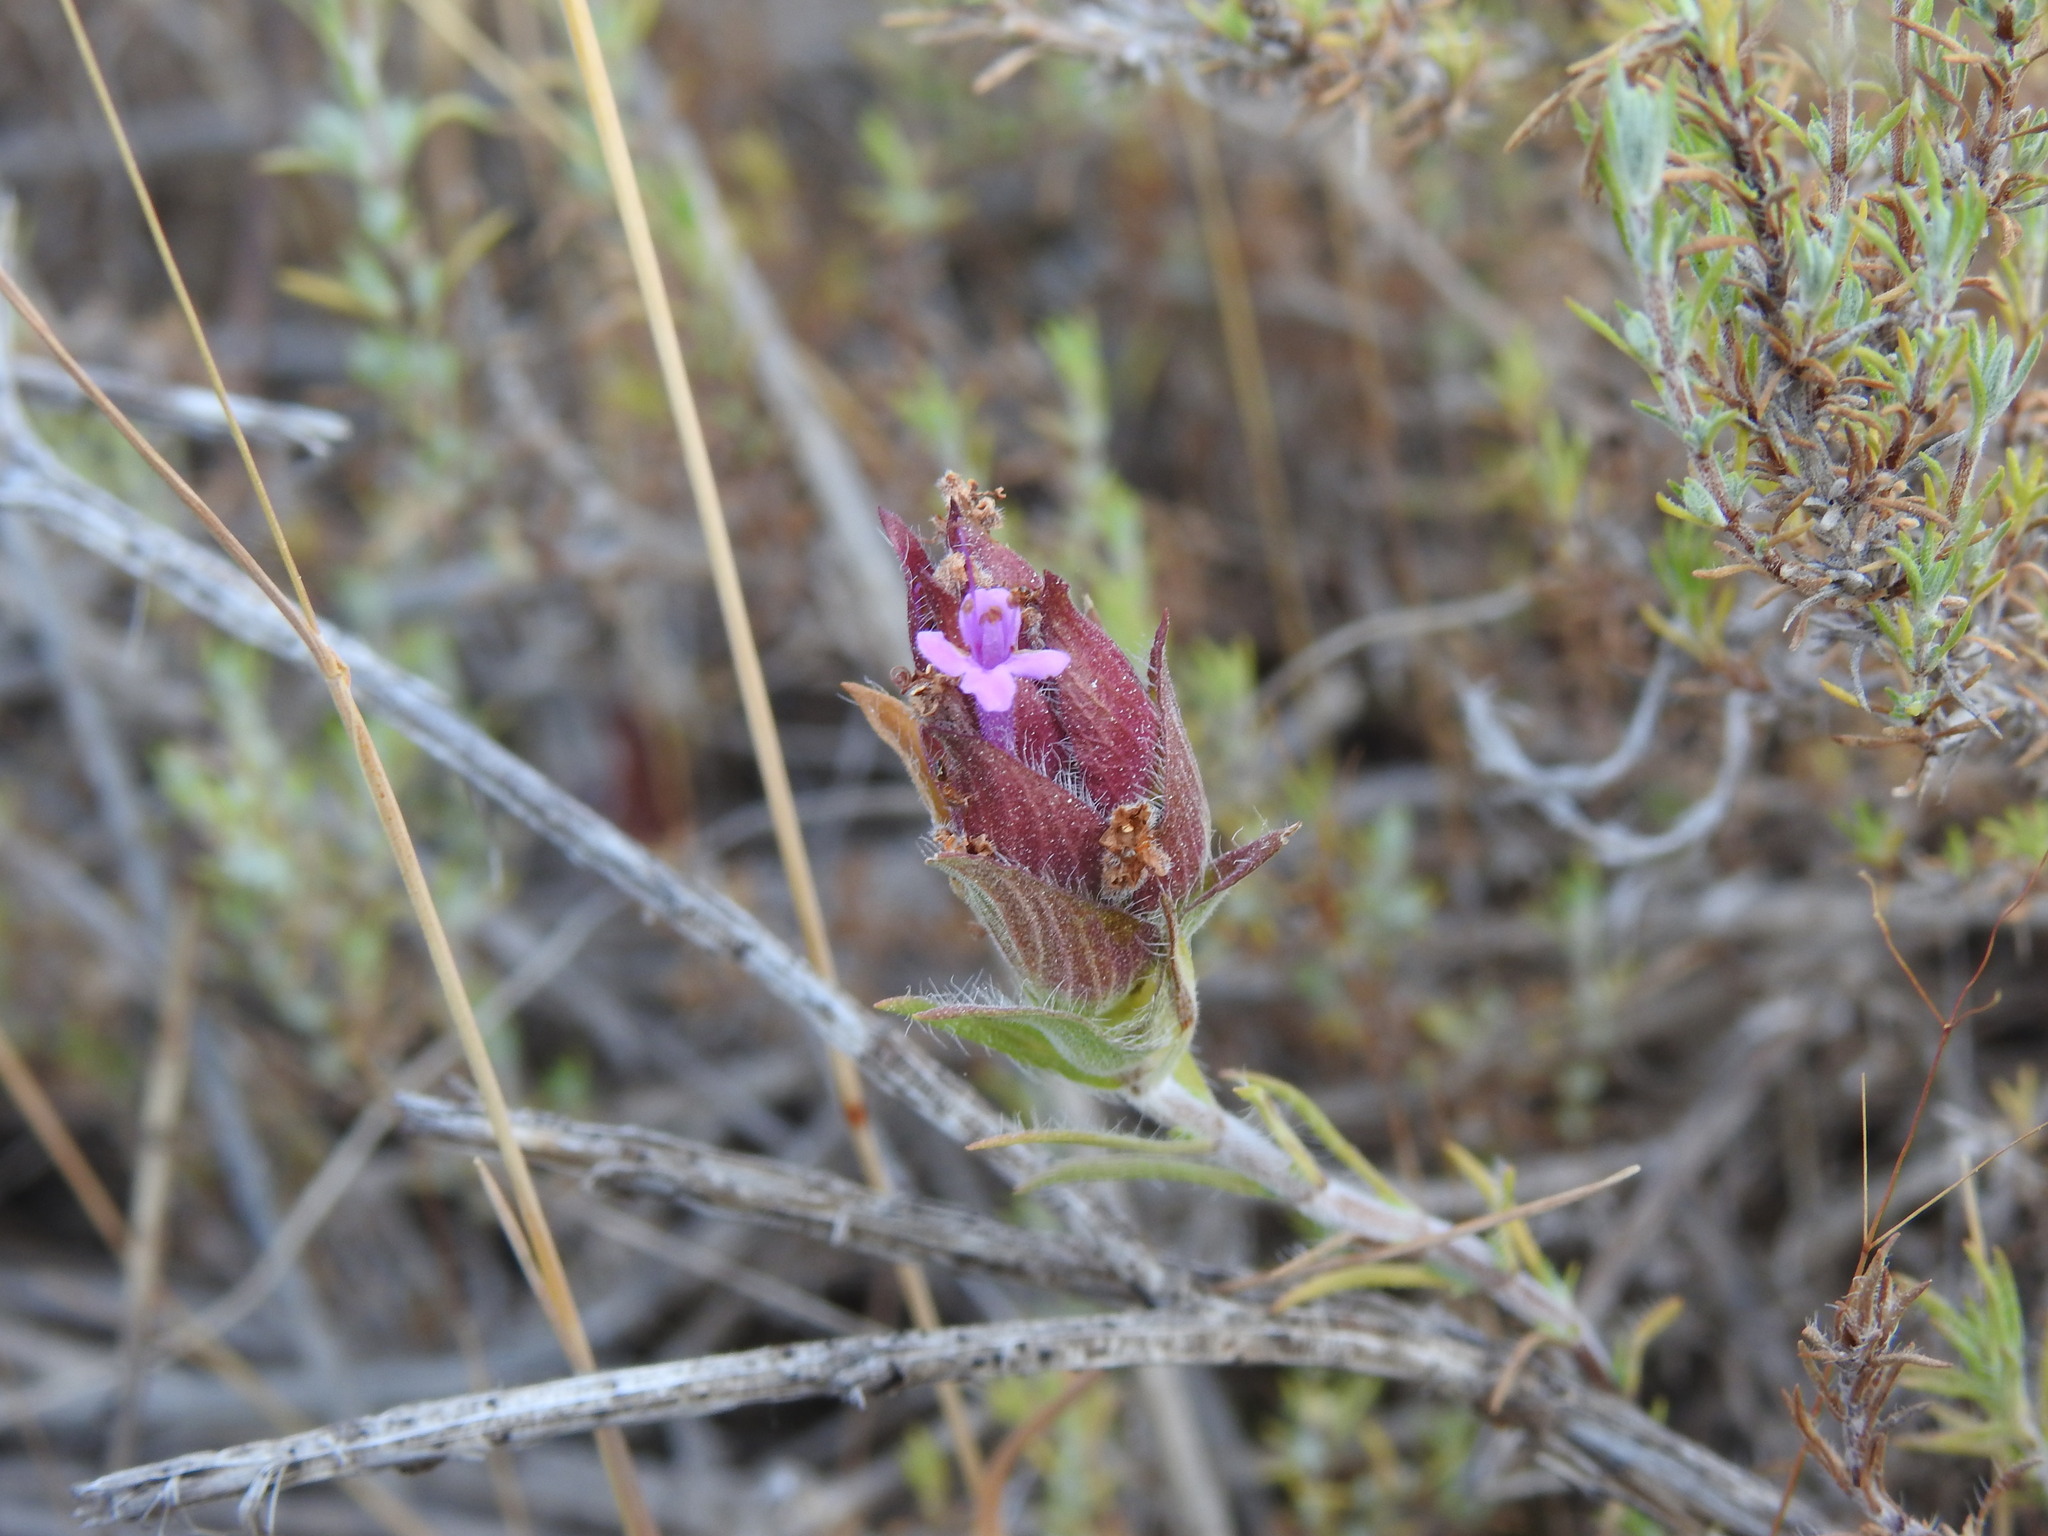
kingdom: Plantae
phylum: Tracheophyta
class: Magnoliopsida
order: Lamiales
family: Lamiaceae
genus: Thymus
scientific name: Thymus lotocephalus
